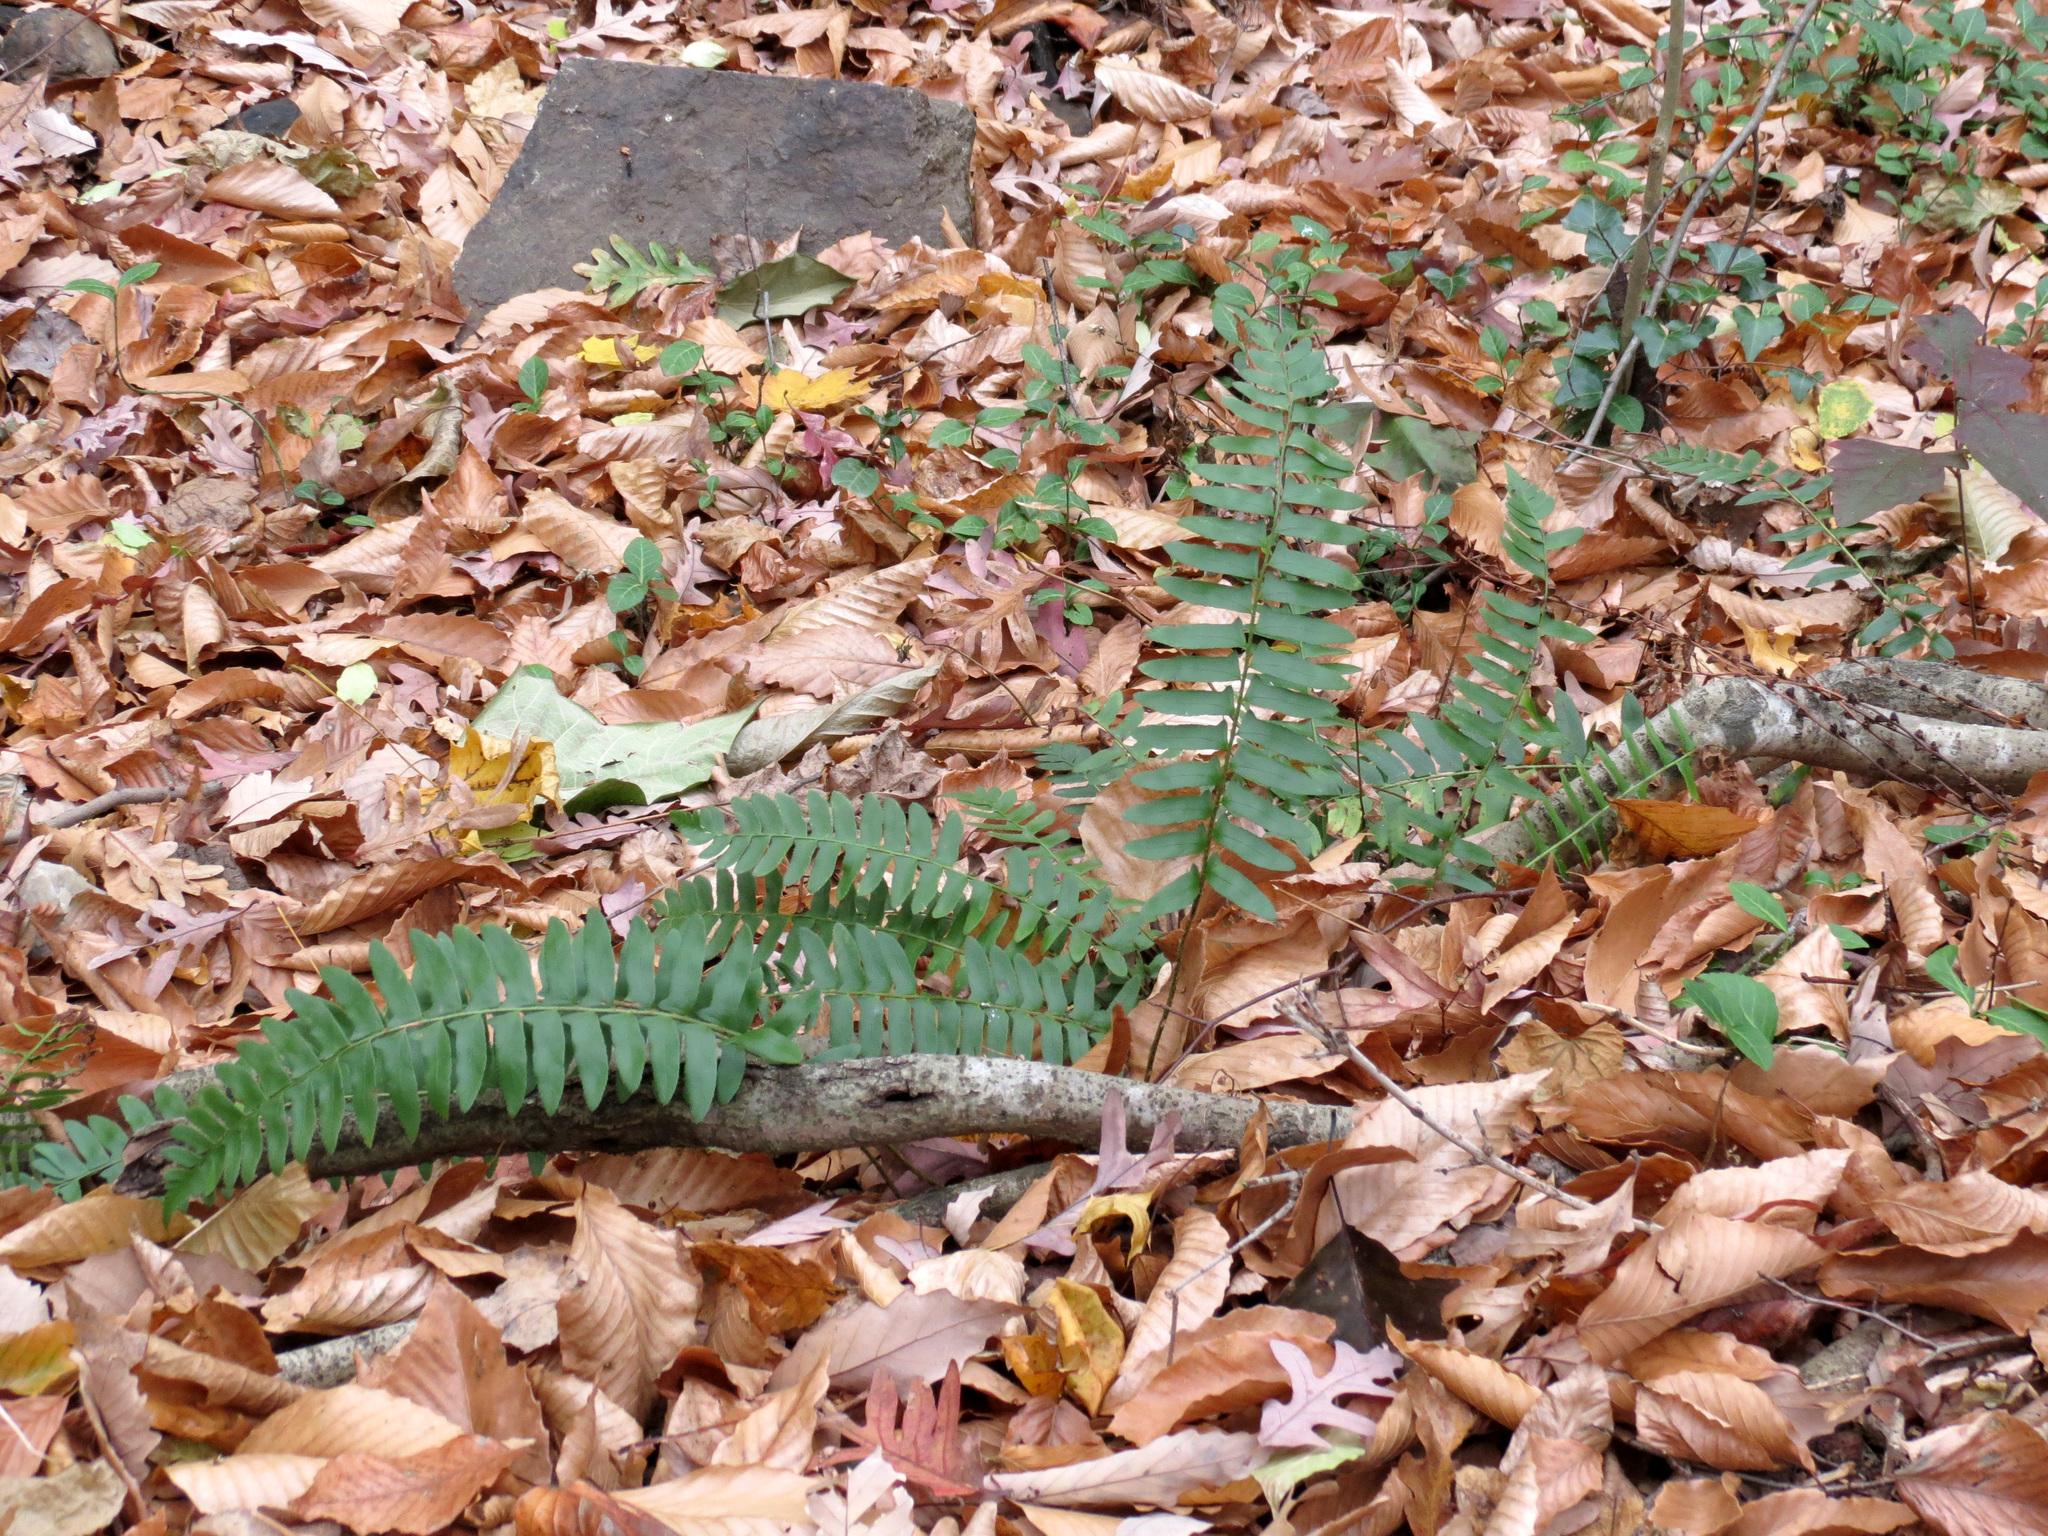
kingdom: Plantae
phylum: Tracheophyta
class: Polypodiopsida
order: Polypodiales
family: Dryopteridaceae
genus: Polystichum
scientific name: Polystichum acrostichoides
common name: Christmas fern
